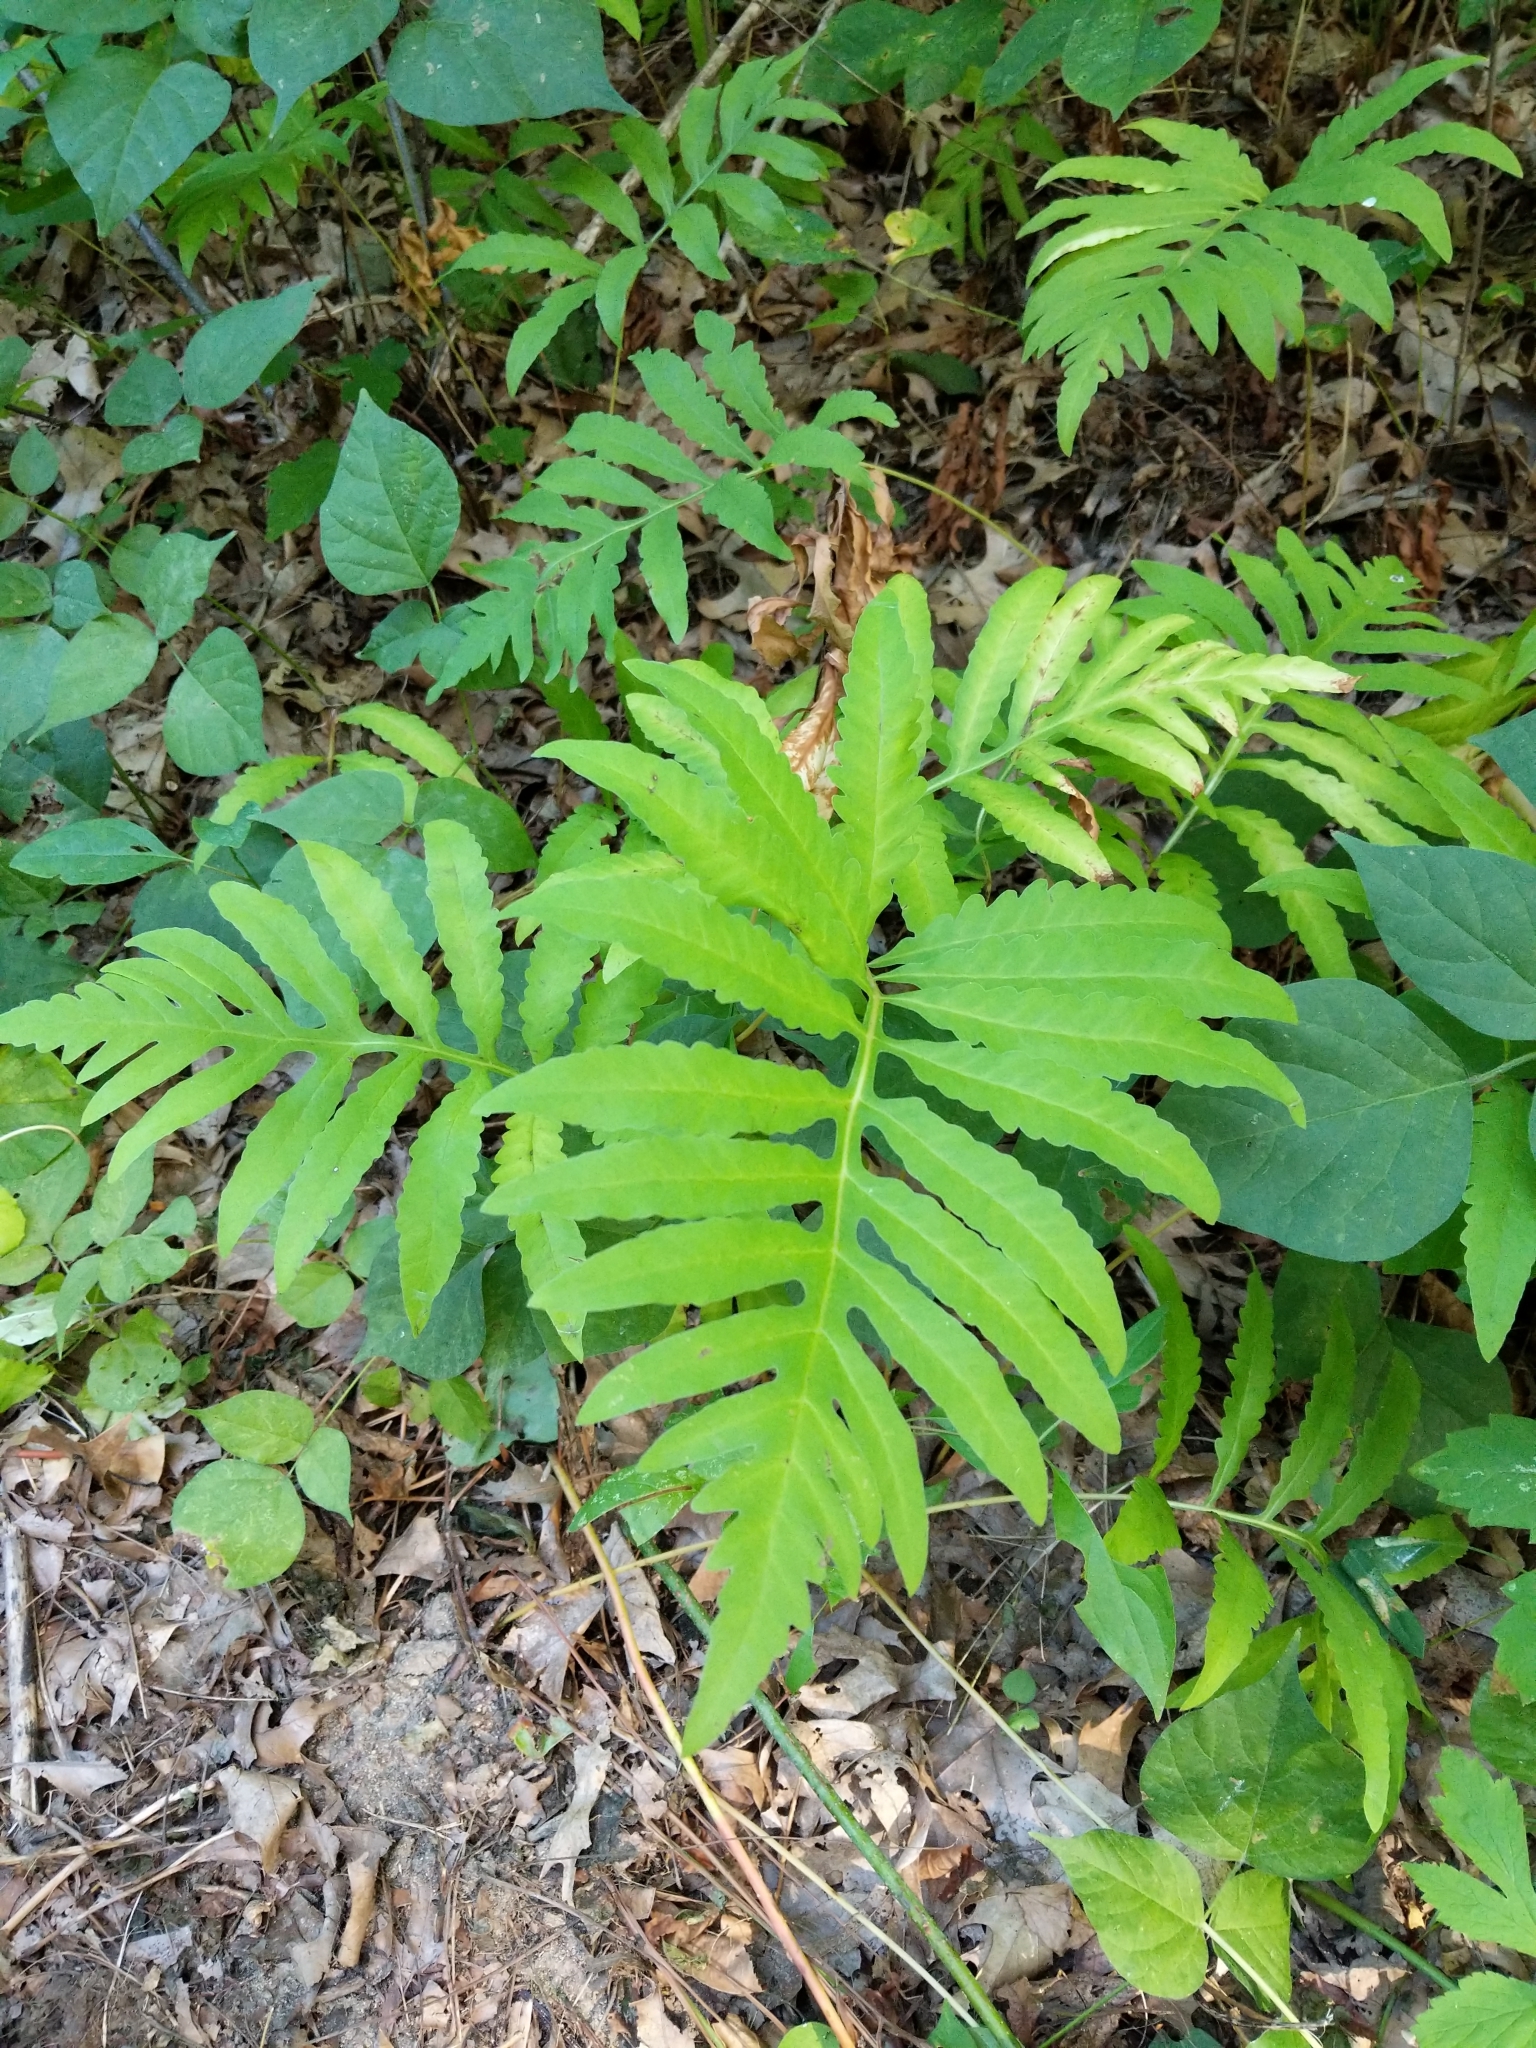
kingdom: Plantae
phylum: Tracheophyta
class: Polypodiopsida
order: Polypodiales
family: Onocleaceae
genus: Onoclea
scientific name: Onoclea sensibilis
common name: Sensitive fern
